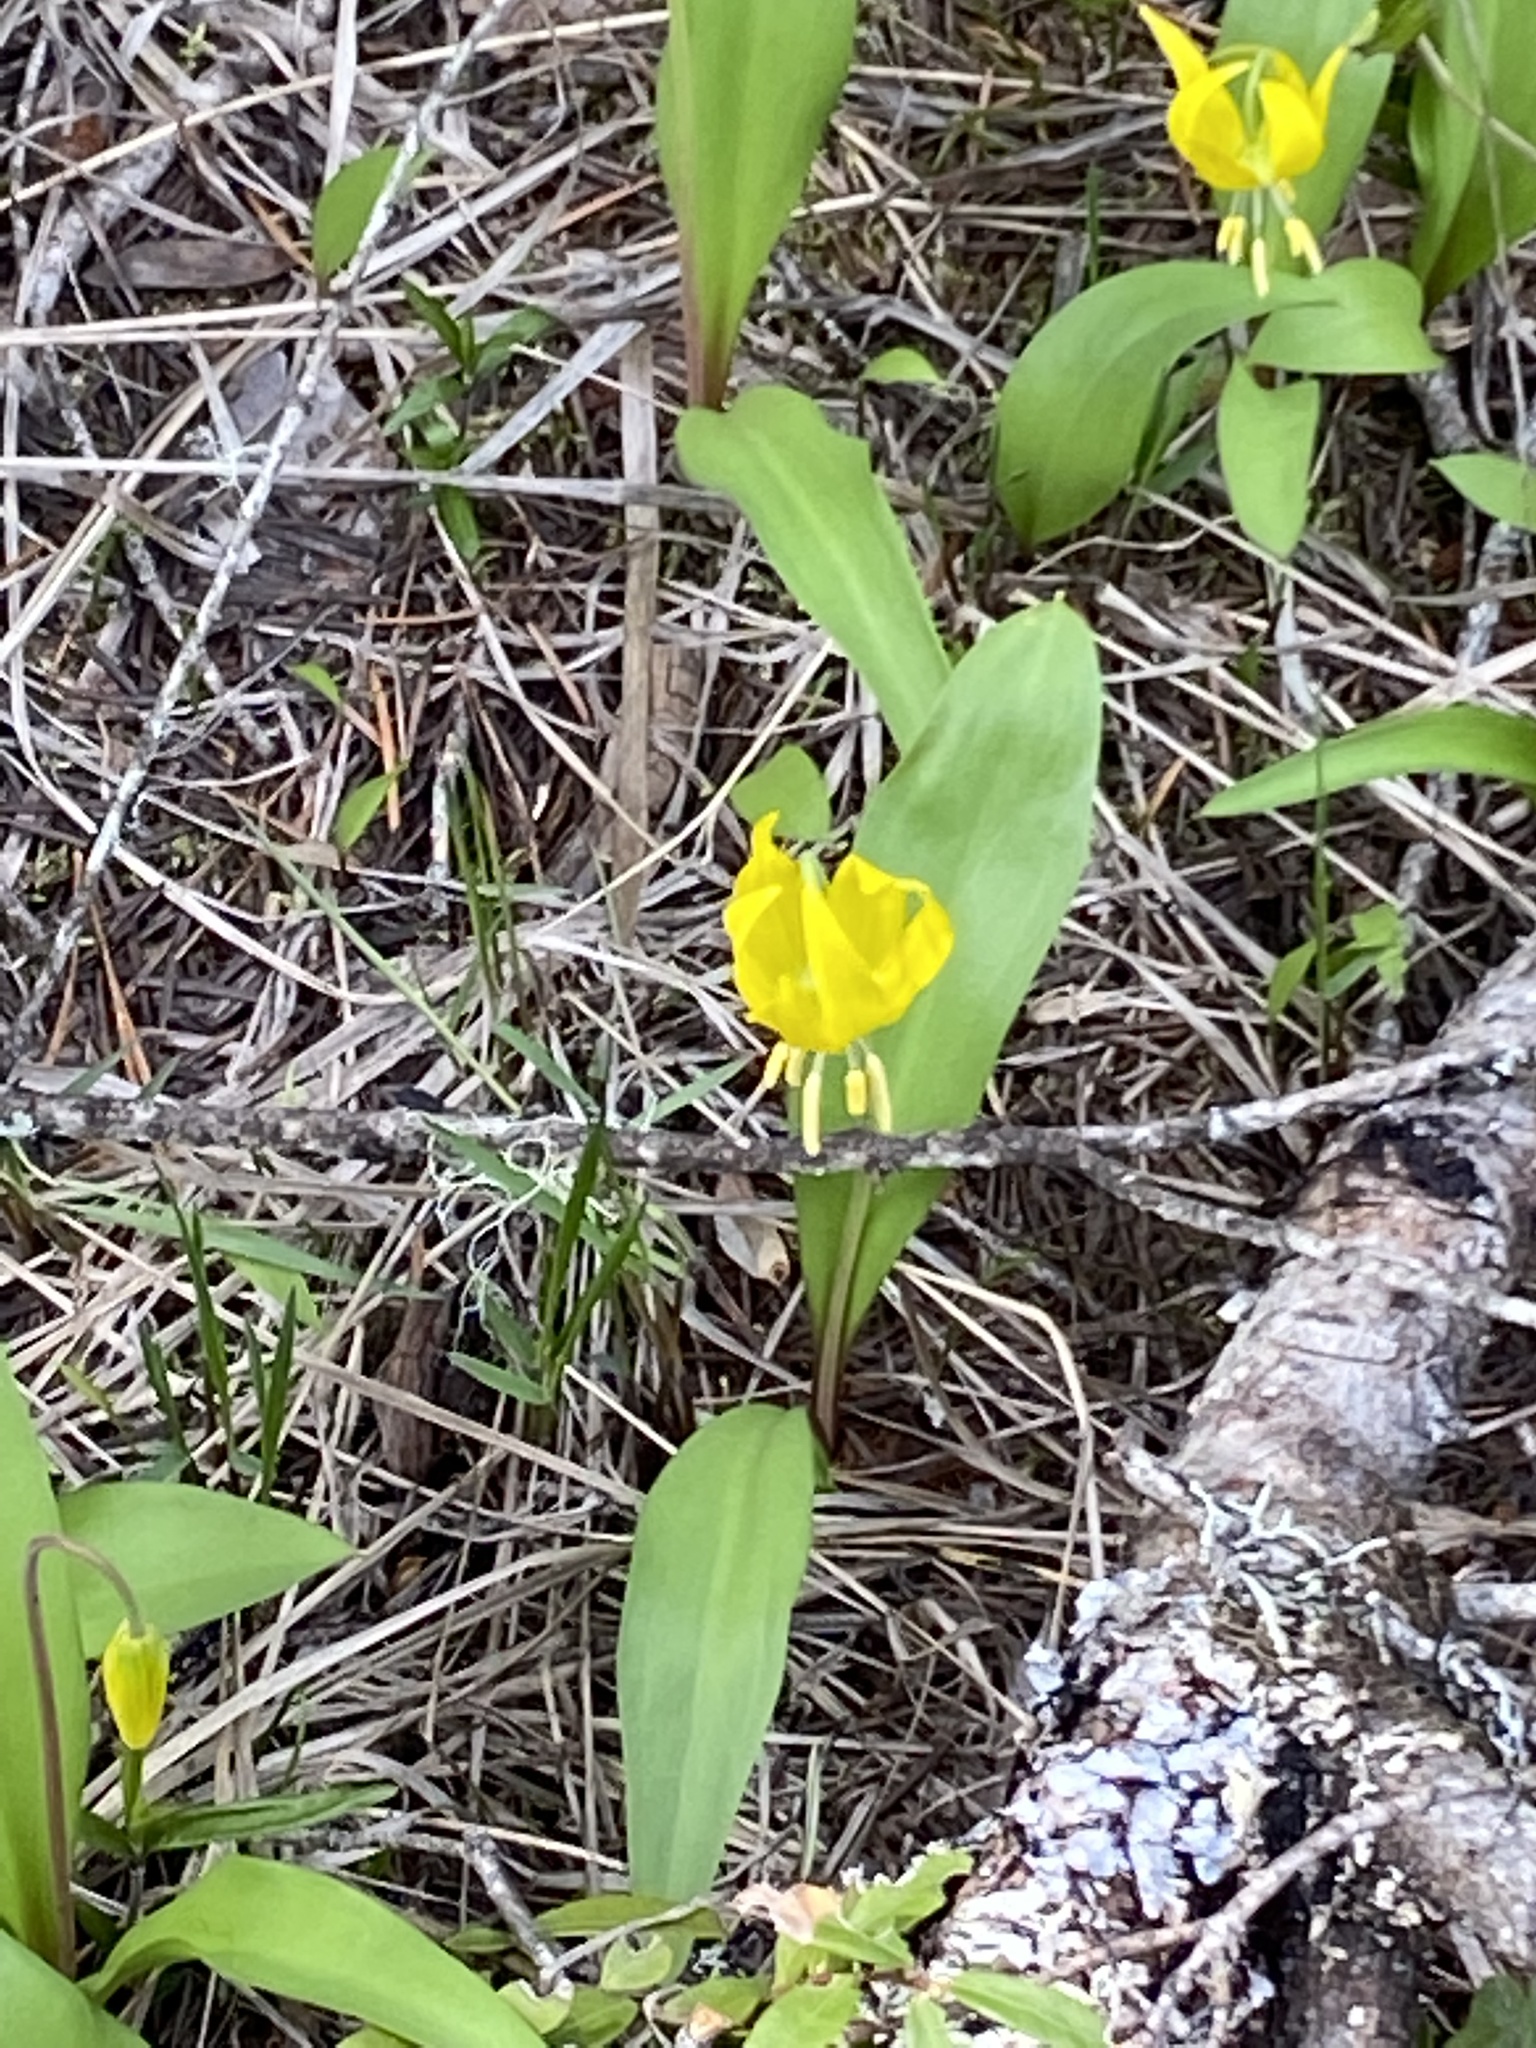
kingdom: Plantae
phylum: Tracheophyta
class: Liliopsida
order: Liliales
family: Liliaceae
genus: Erythronium
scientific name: Erythronium grandiflorum
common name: Avalanche-lily
